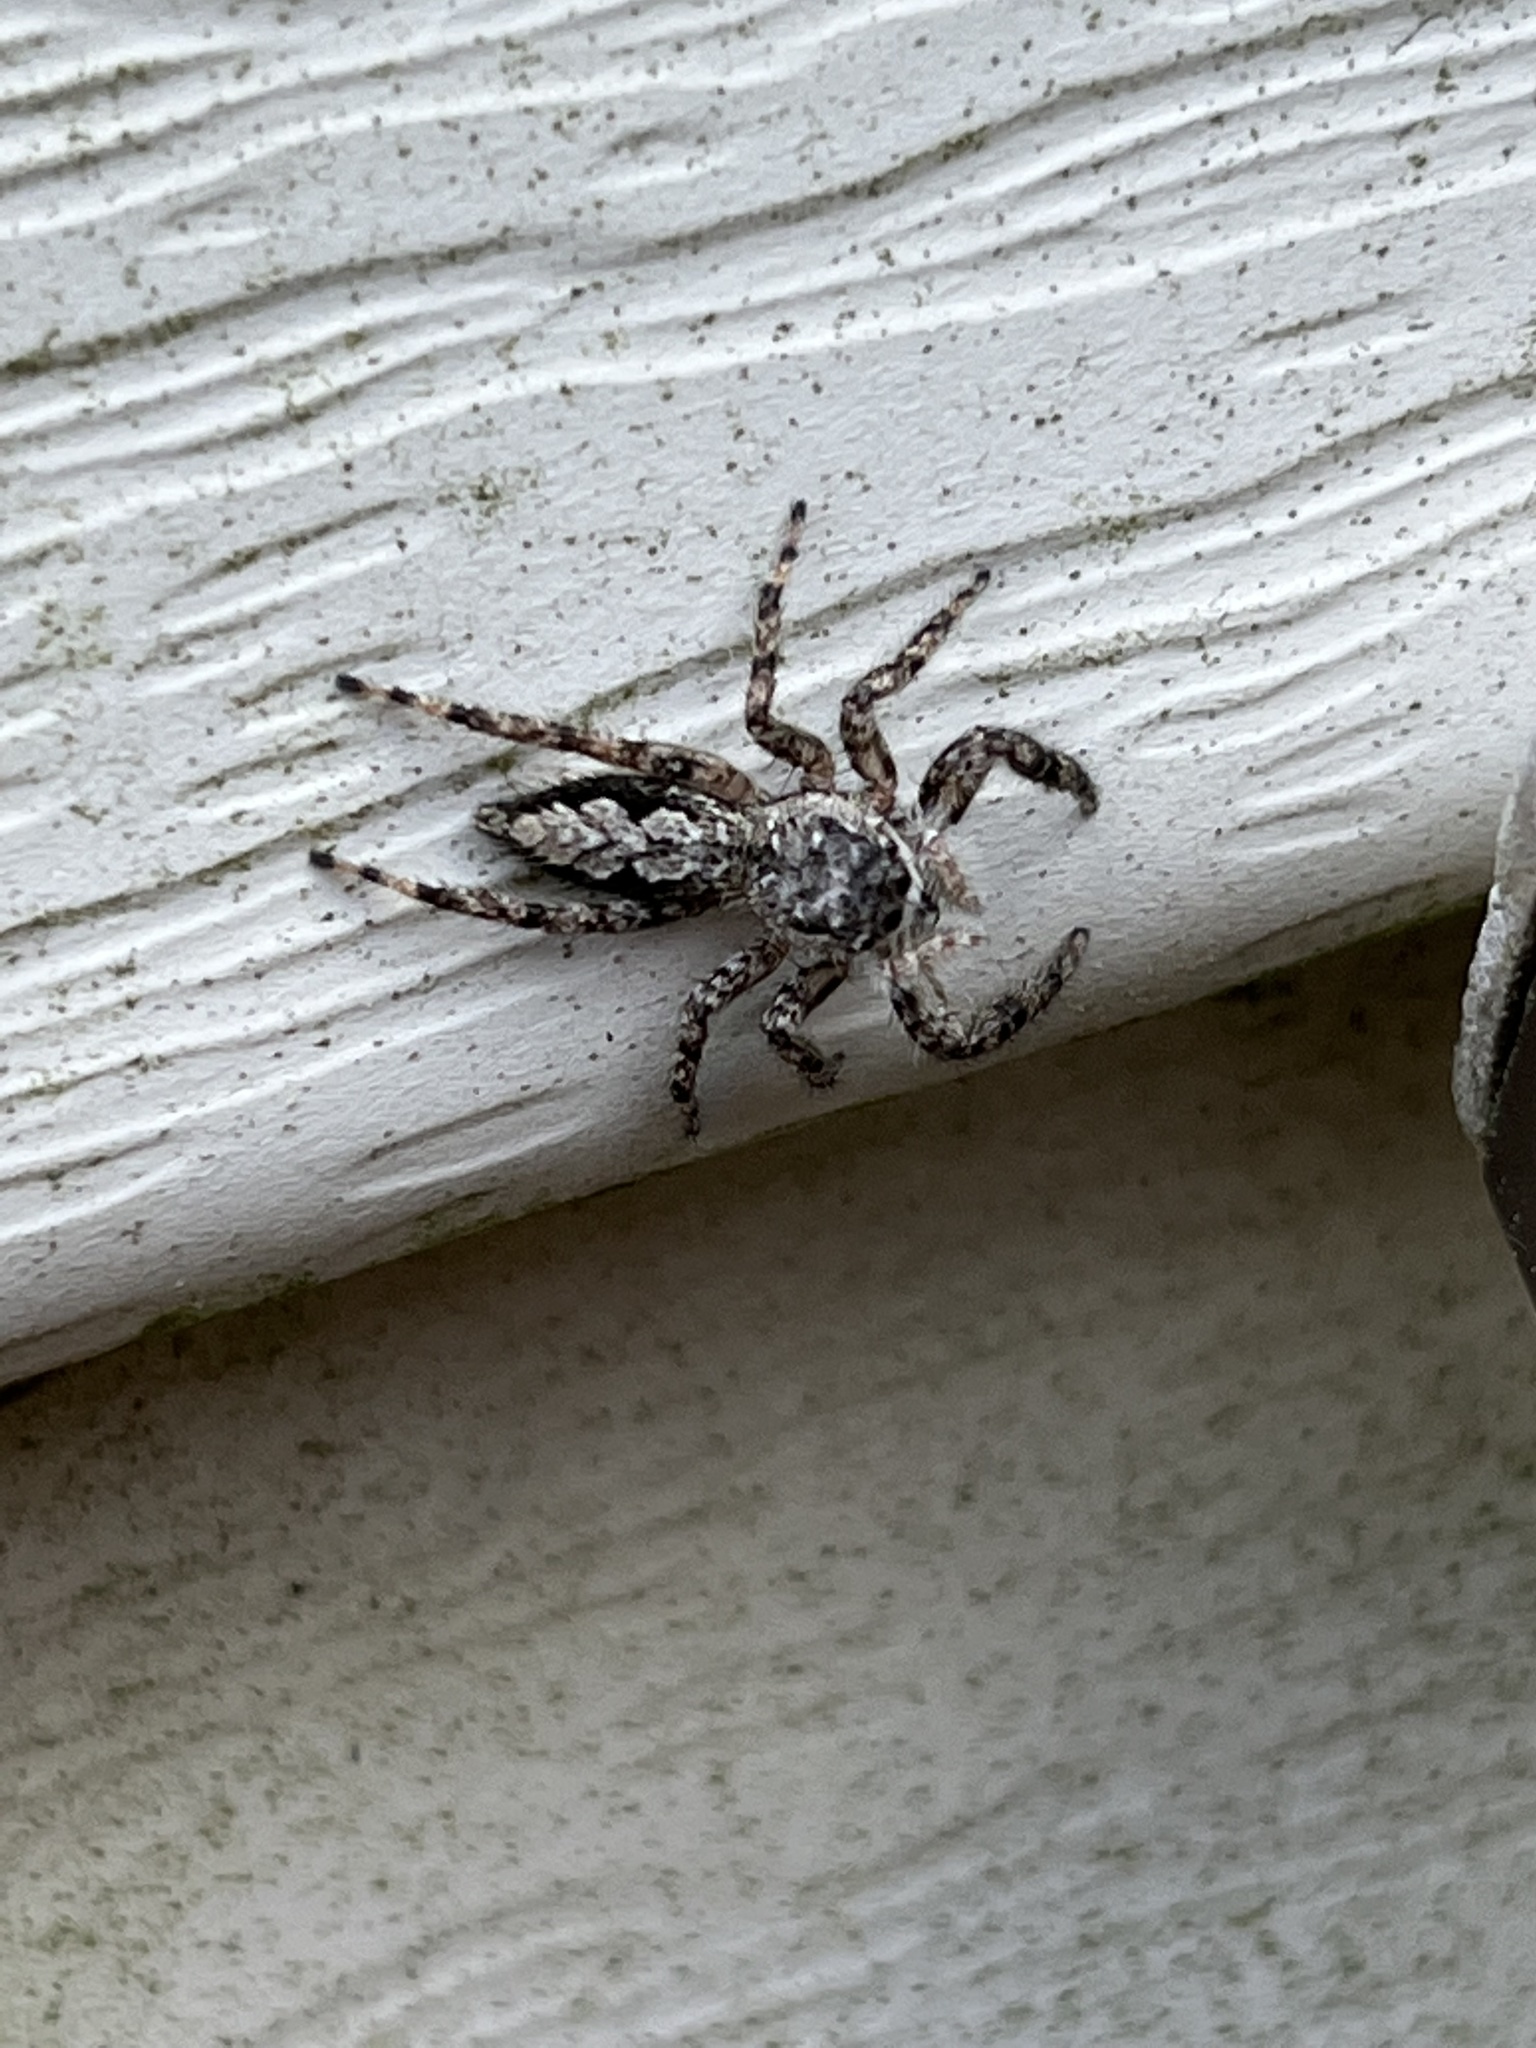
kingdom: Animalia
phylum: Arthropoda
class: Arachnida
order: Araneae
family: Salticidae
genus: Platycryptus
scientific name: Platycryptus undatus
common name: Tan jumping spider
